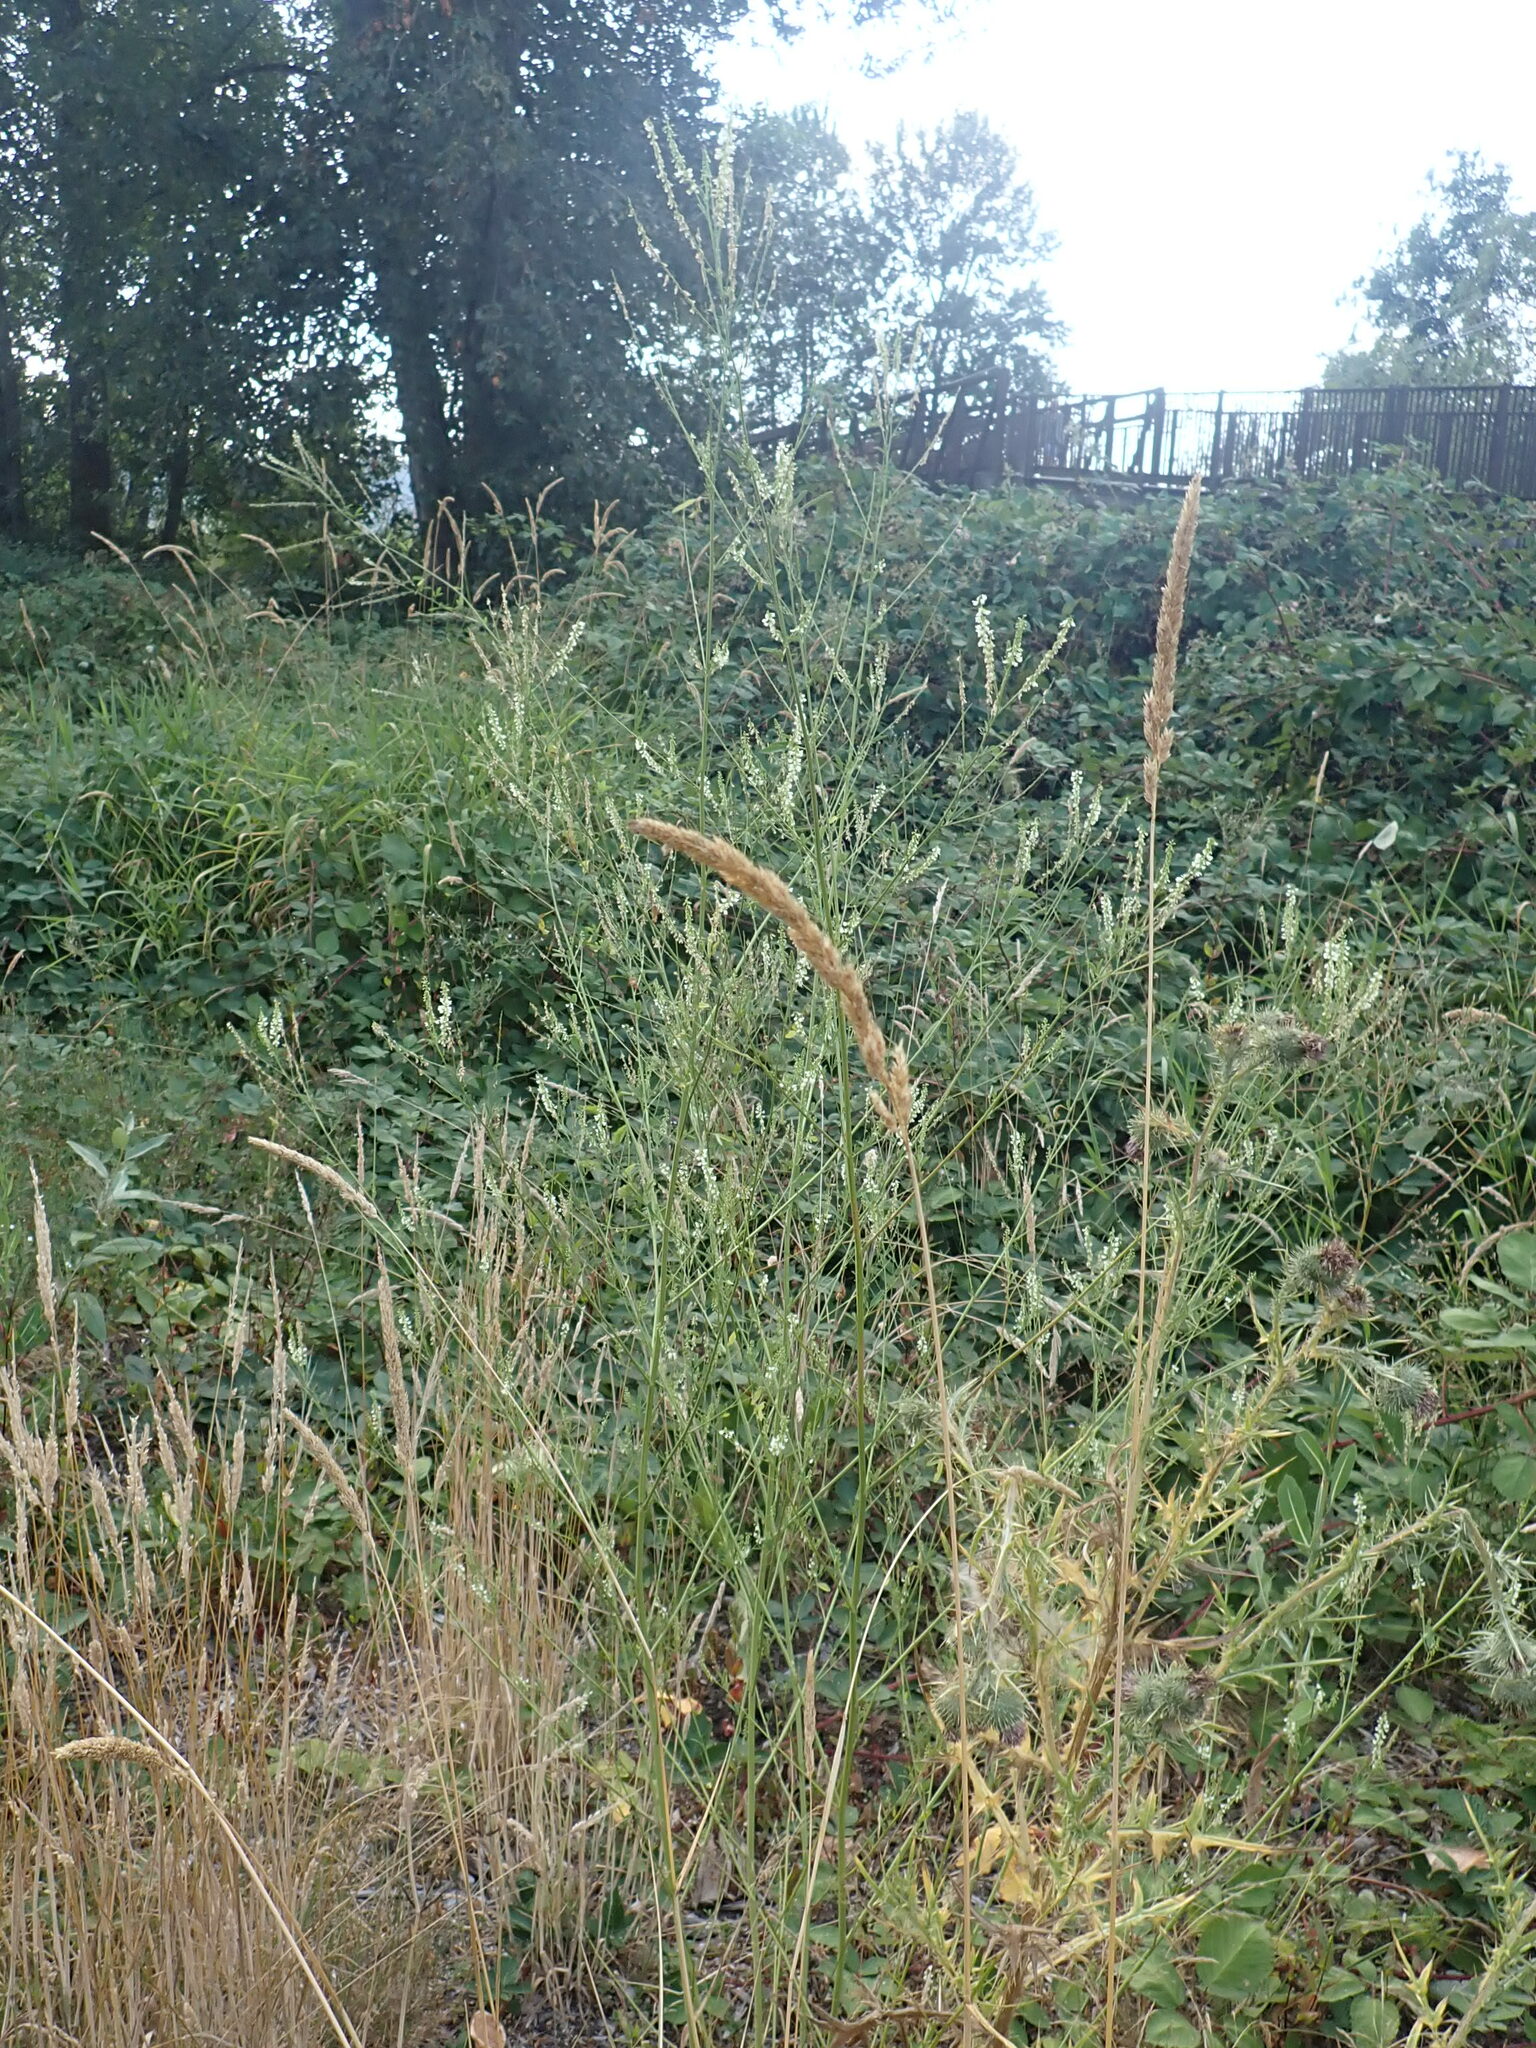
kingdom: Plantae
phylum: Tracheophyta
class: Magnoliopsida
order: Fabales
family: Fabaceae
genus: Melilotus
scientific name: Melilotus albus
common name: White melilot
